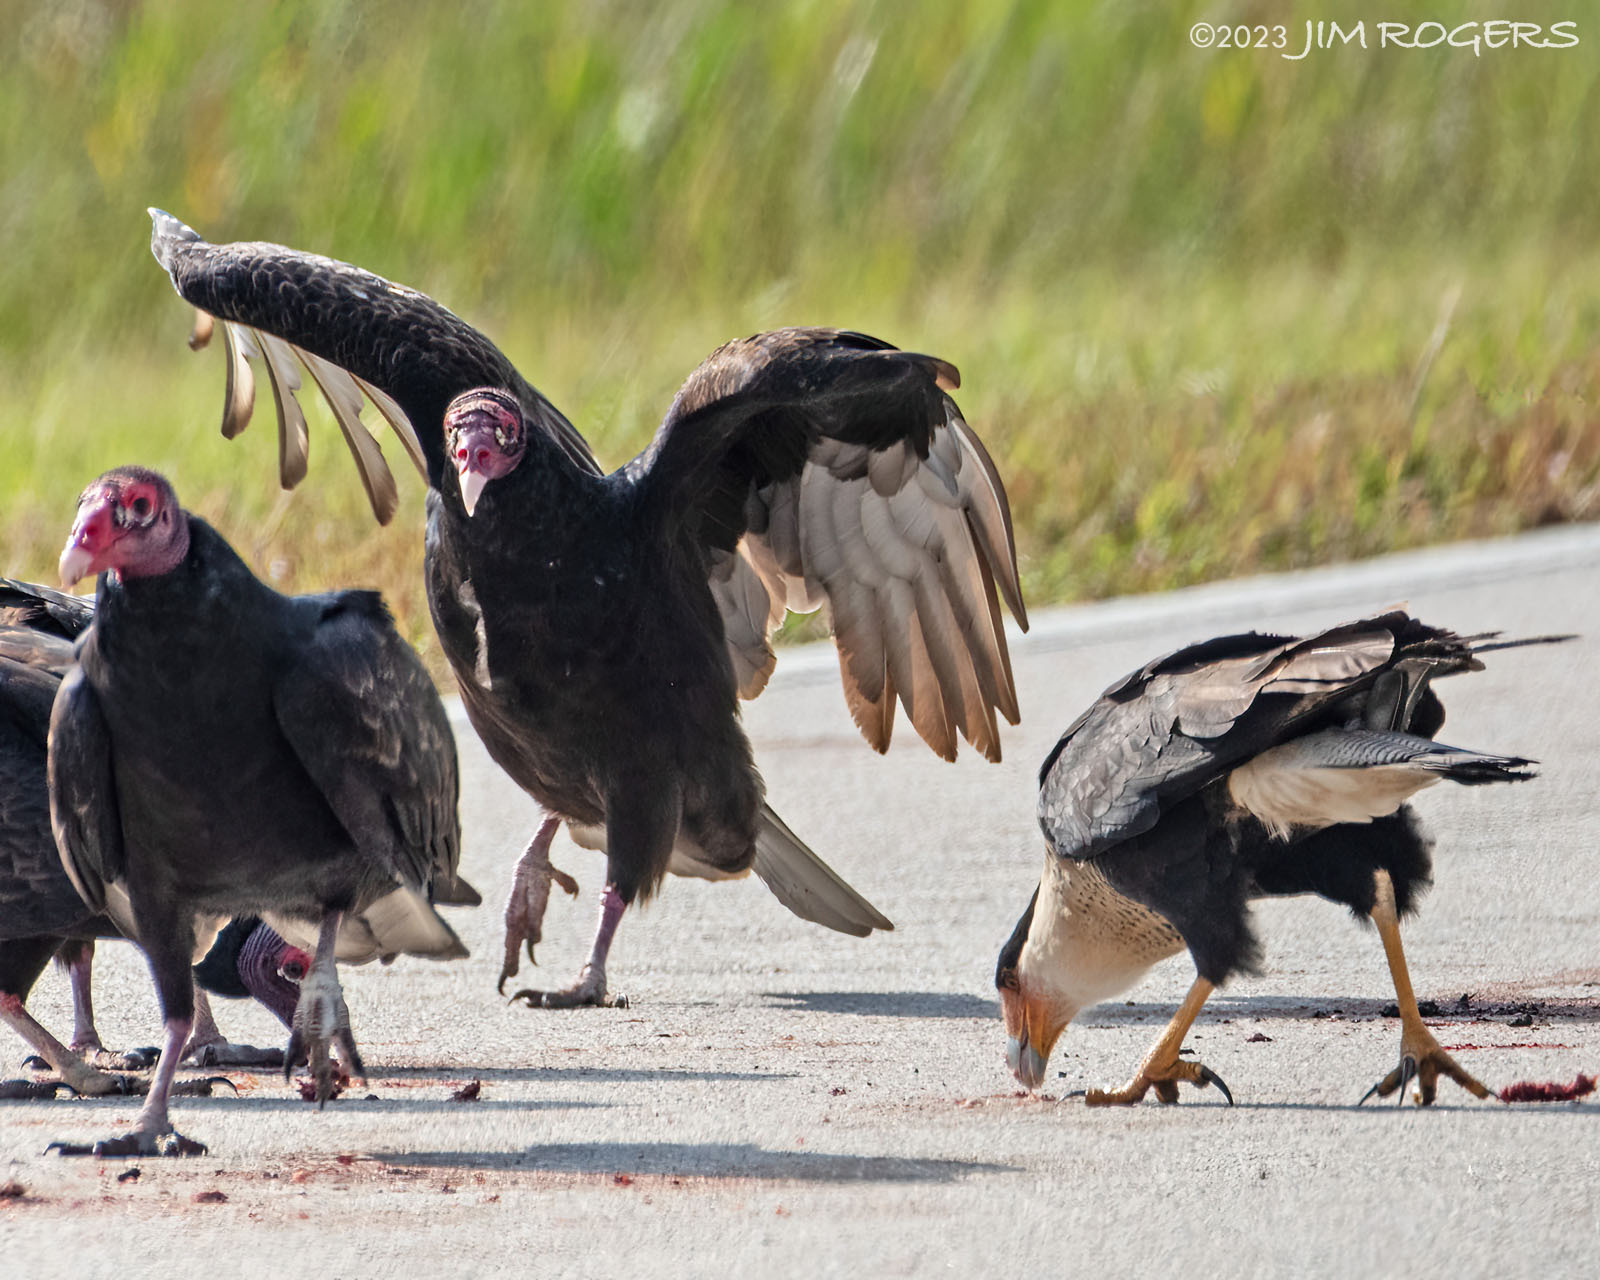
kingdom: Animalia
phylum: Chordata
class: Aves
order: Falconiformes
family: Falconidae
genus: Caracara
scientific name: Caracara plancus
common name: Southern caracara
